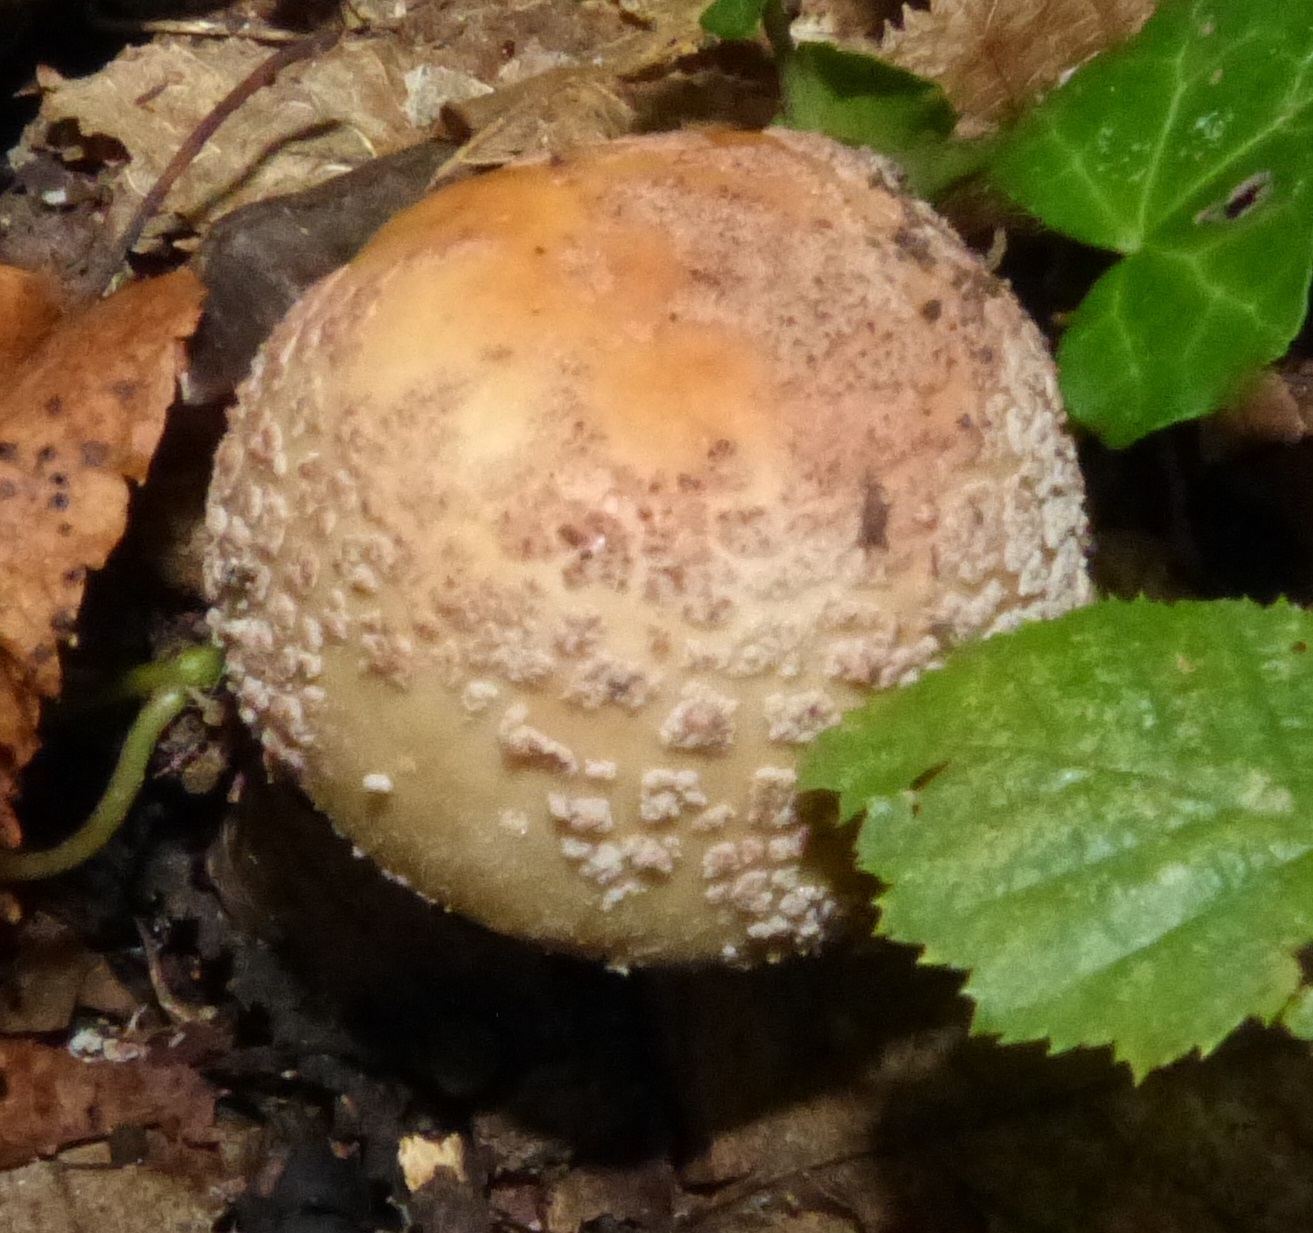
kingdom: Fungi
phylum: Basidiomycota
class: Agaricomycetes
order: Agaricales
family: Amanitaceae
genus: Amanita
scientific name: Amanita rubescens
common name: Blusher
